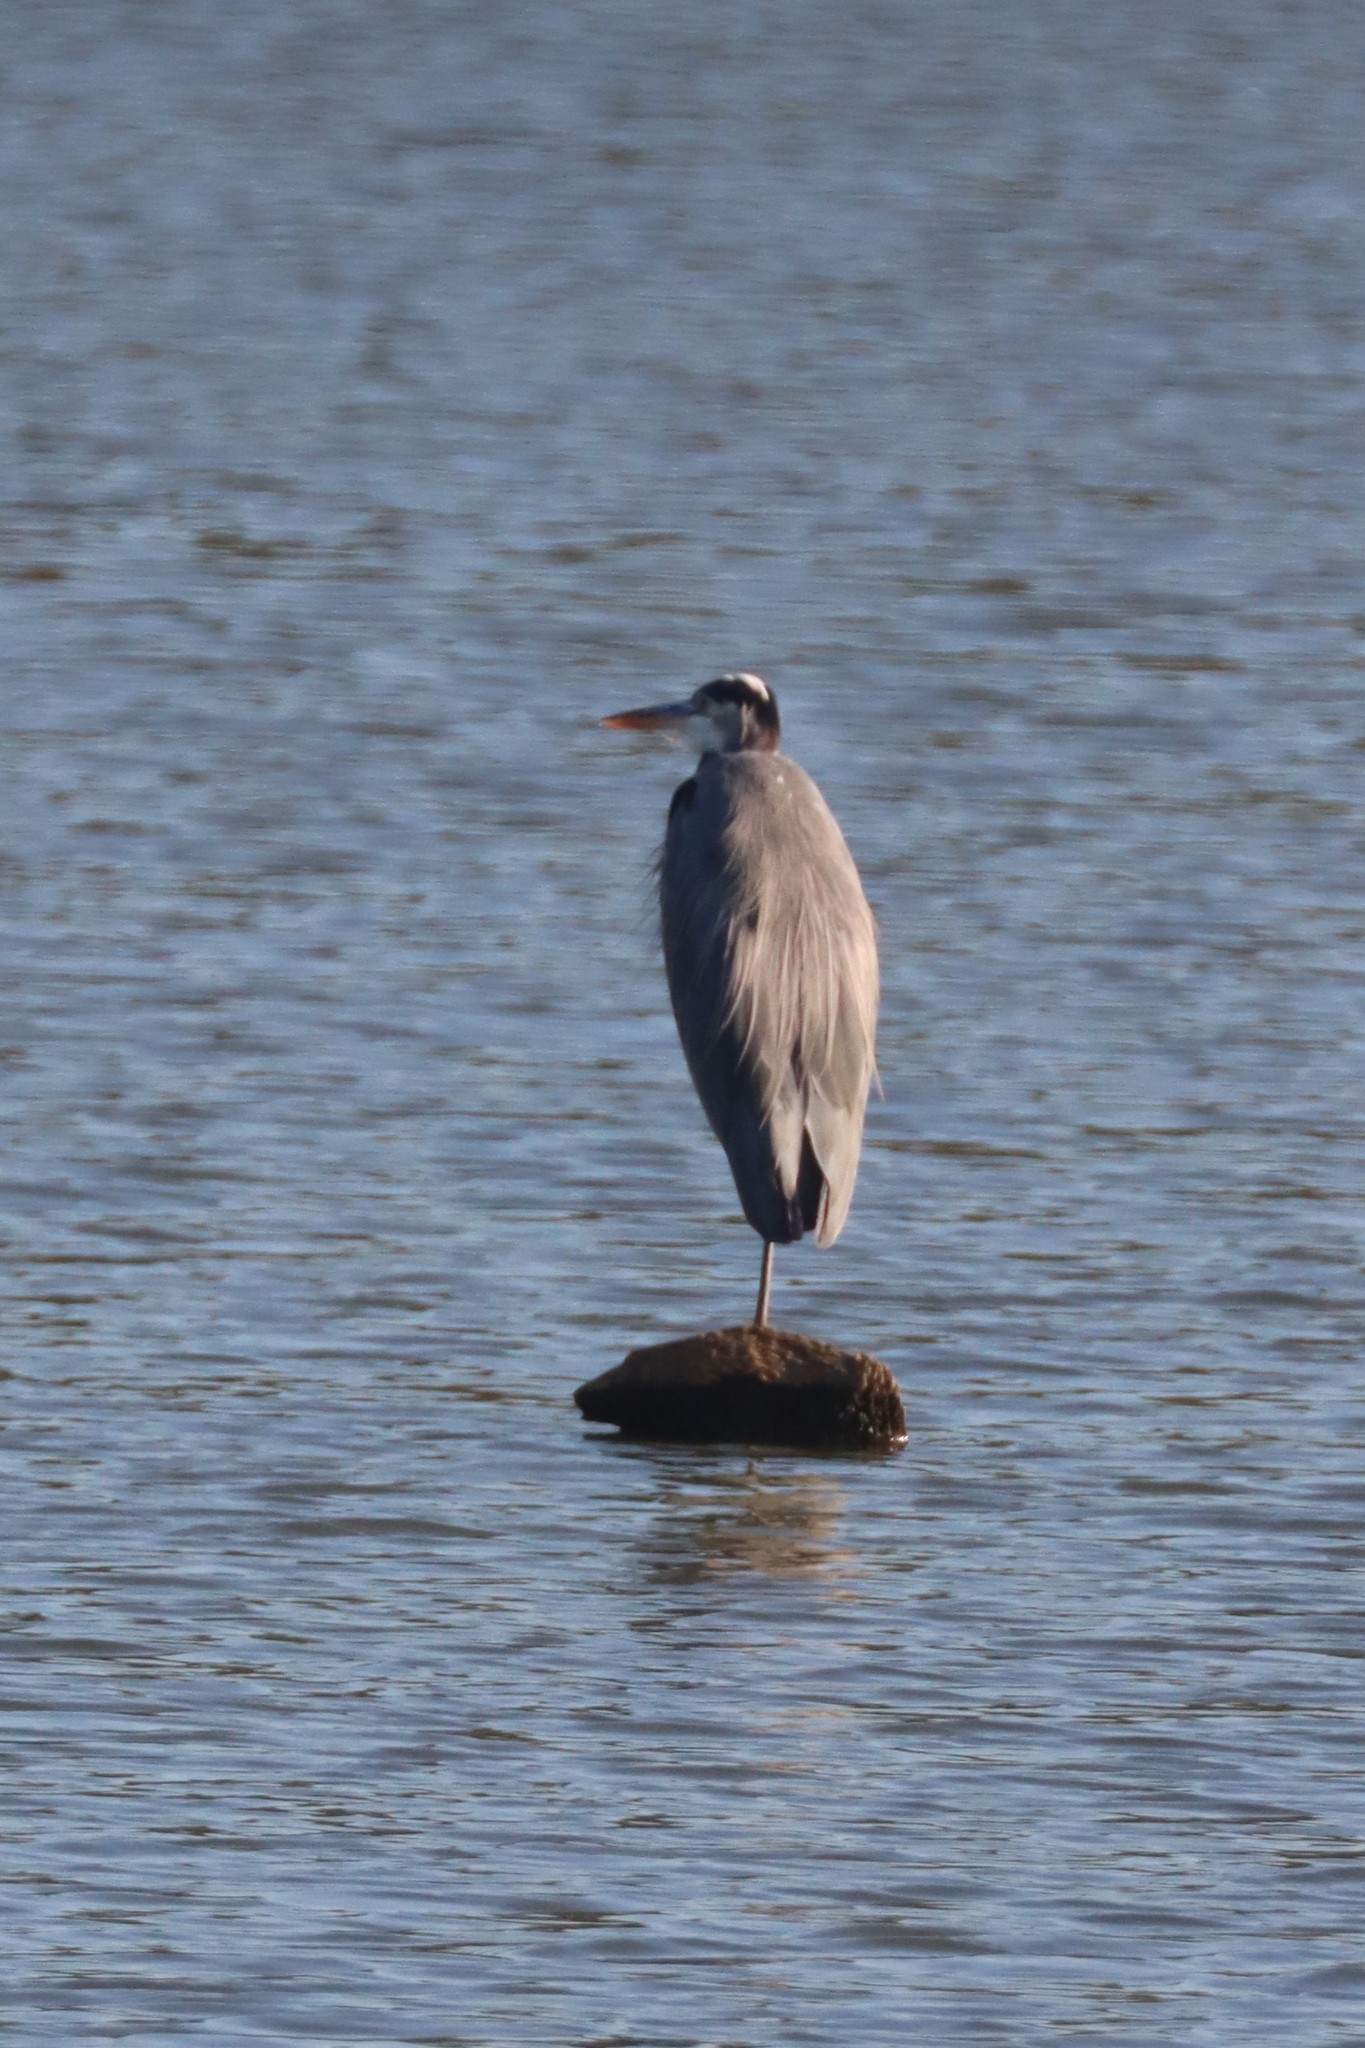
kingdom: Animalia
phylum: Chordata
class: Aves
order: Pelecaniformes
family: Ardeidae
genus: Ardea
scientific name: Ardea herodias
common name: Great blue heron
